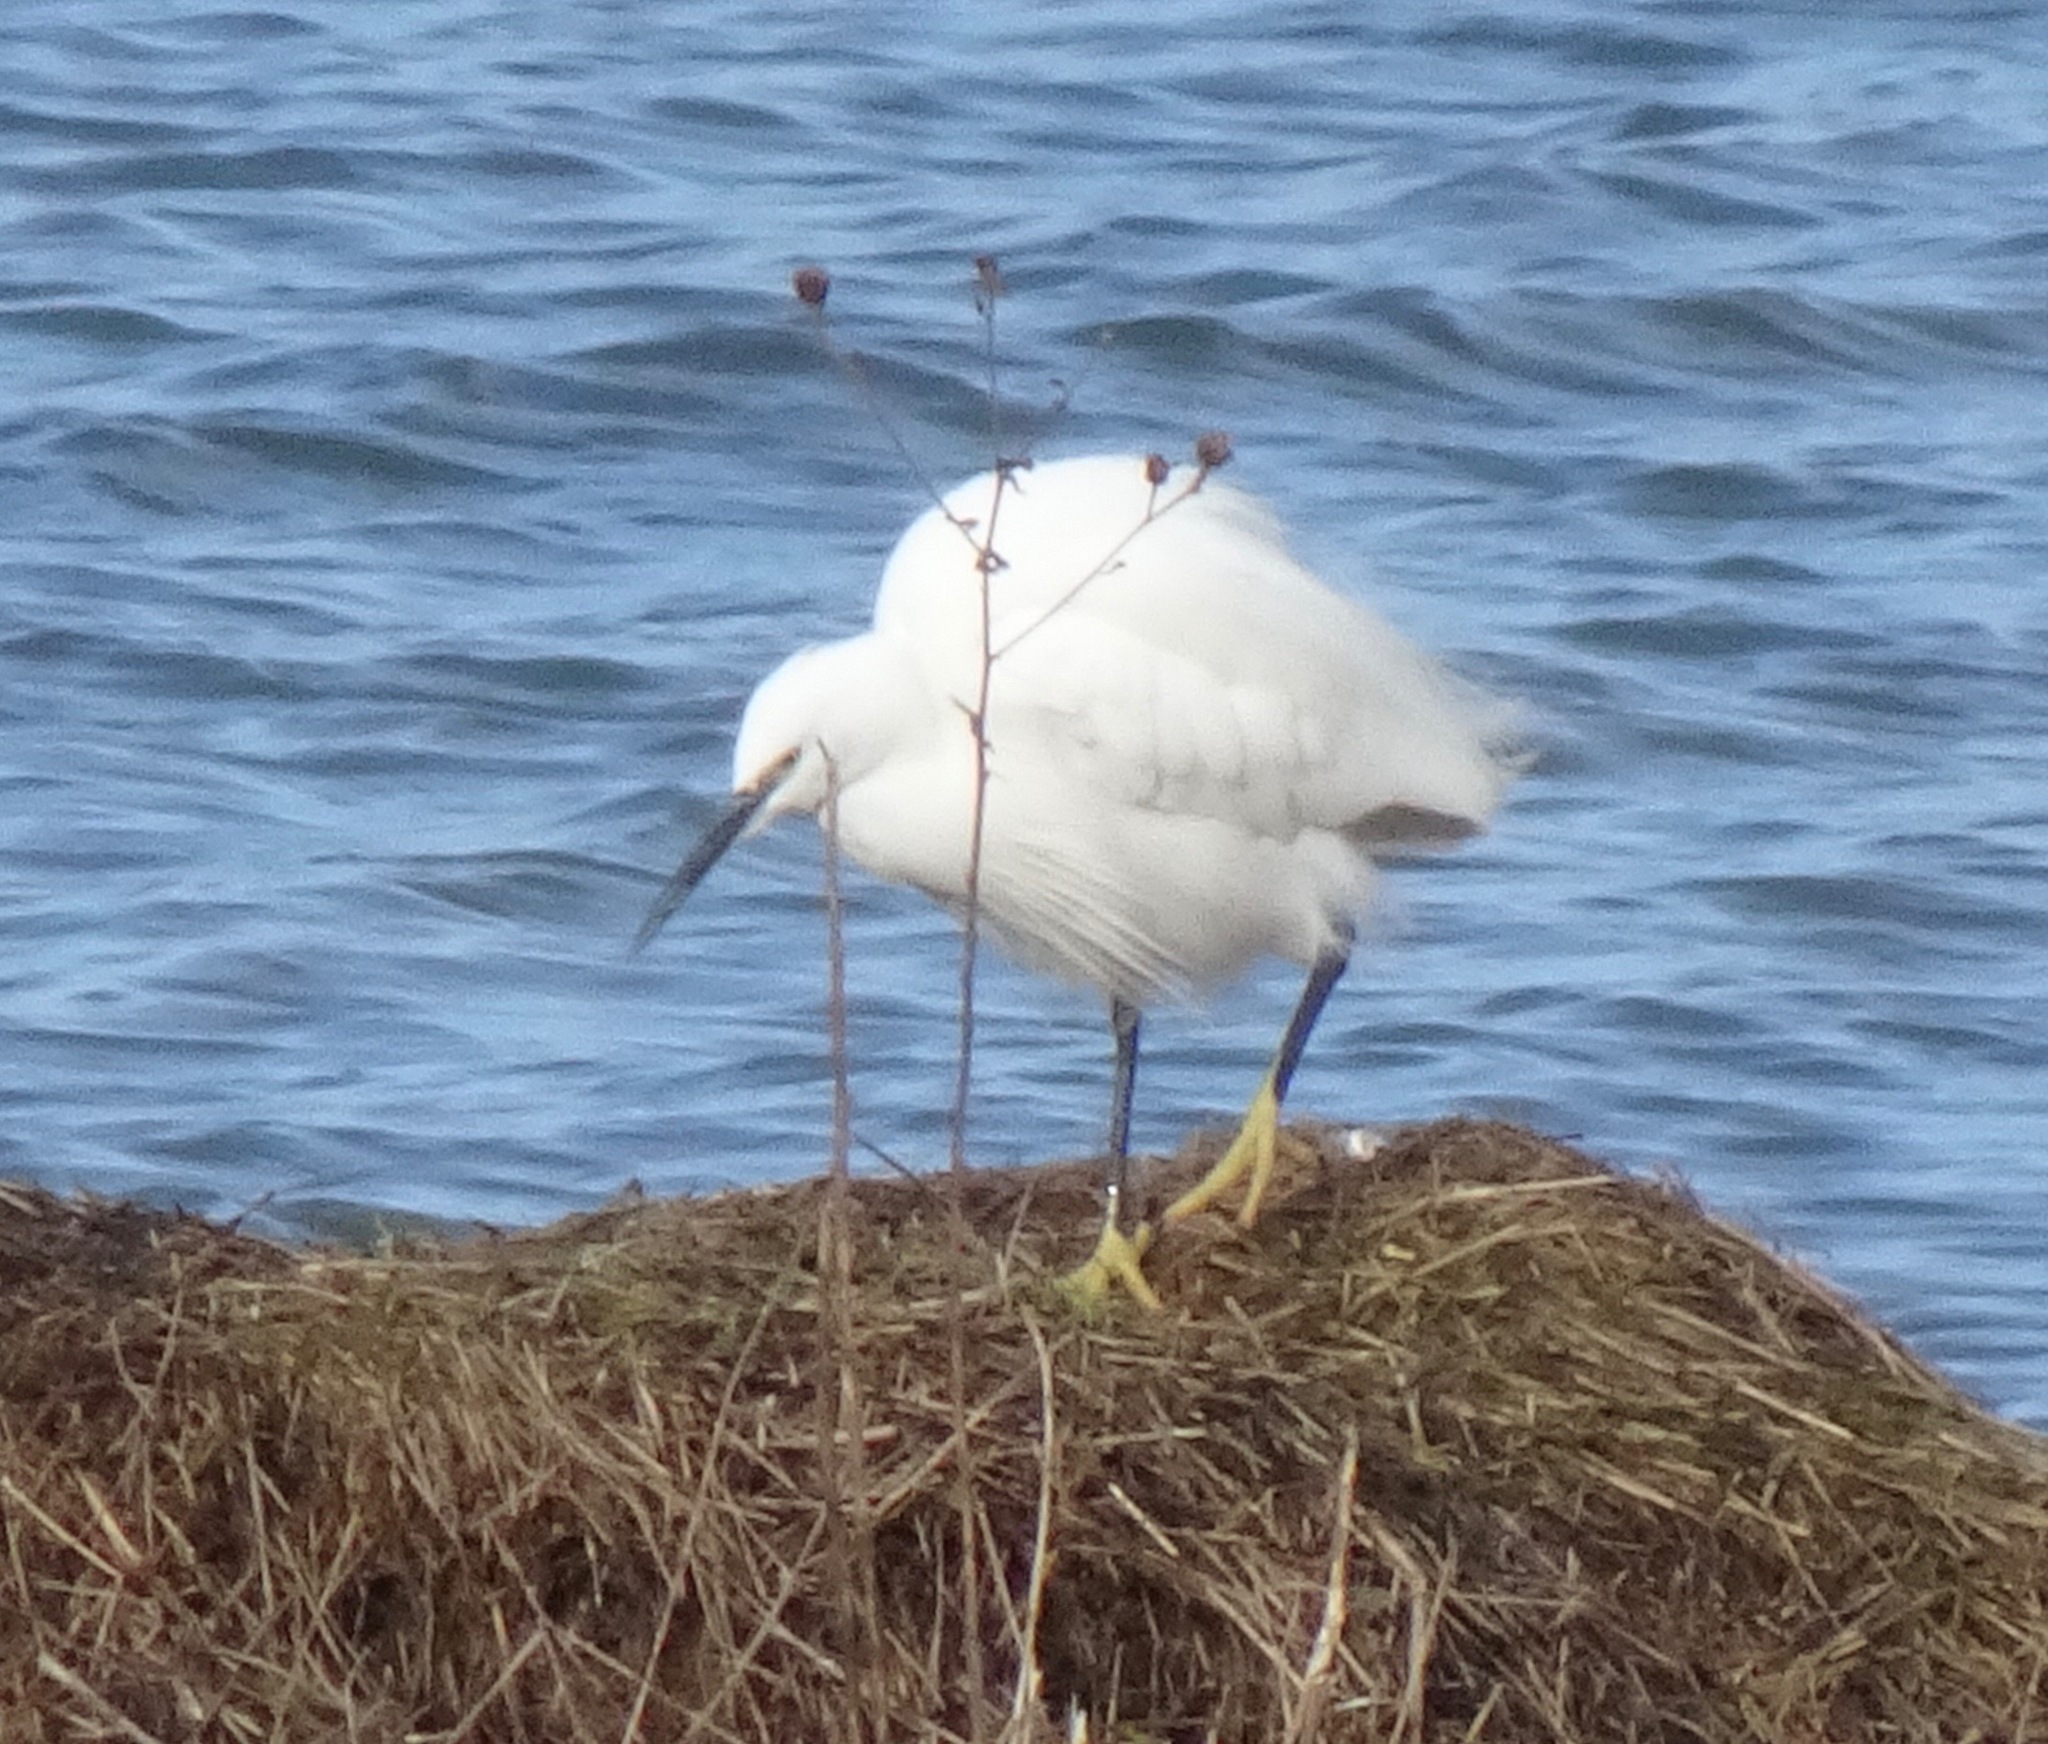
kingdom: Animalia
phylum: Chordata
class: Aves
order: Pelecaniformes
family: Ardeidae
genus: Egretta
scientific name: Egretta garzetta
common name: Little egret
